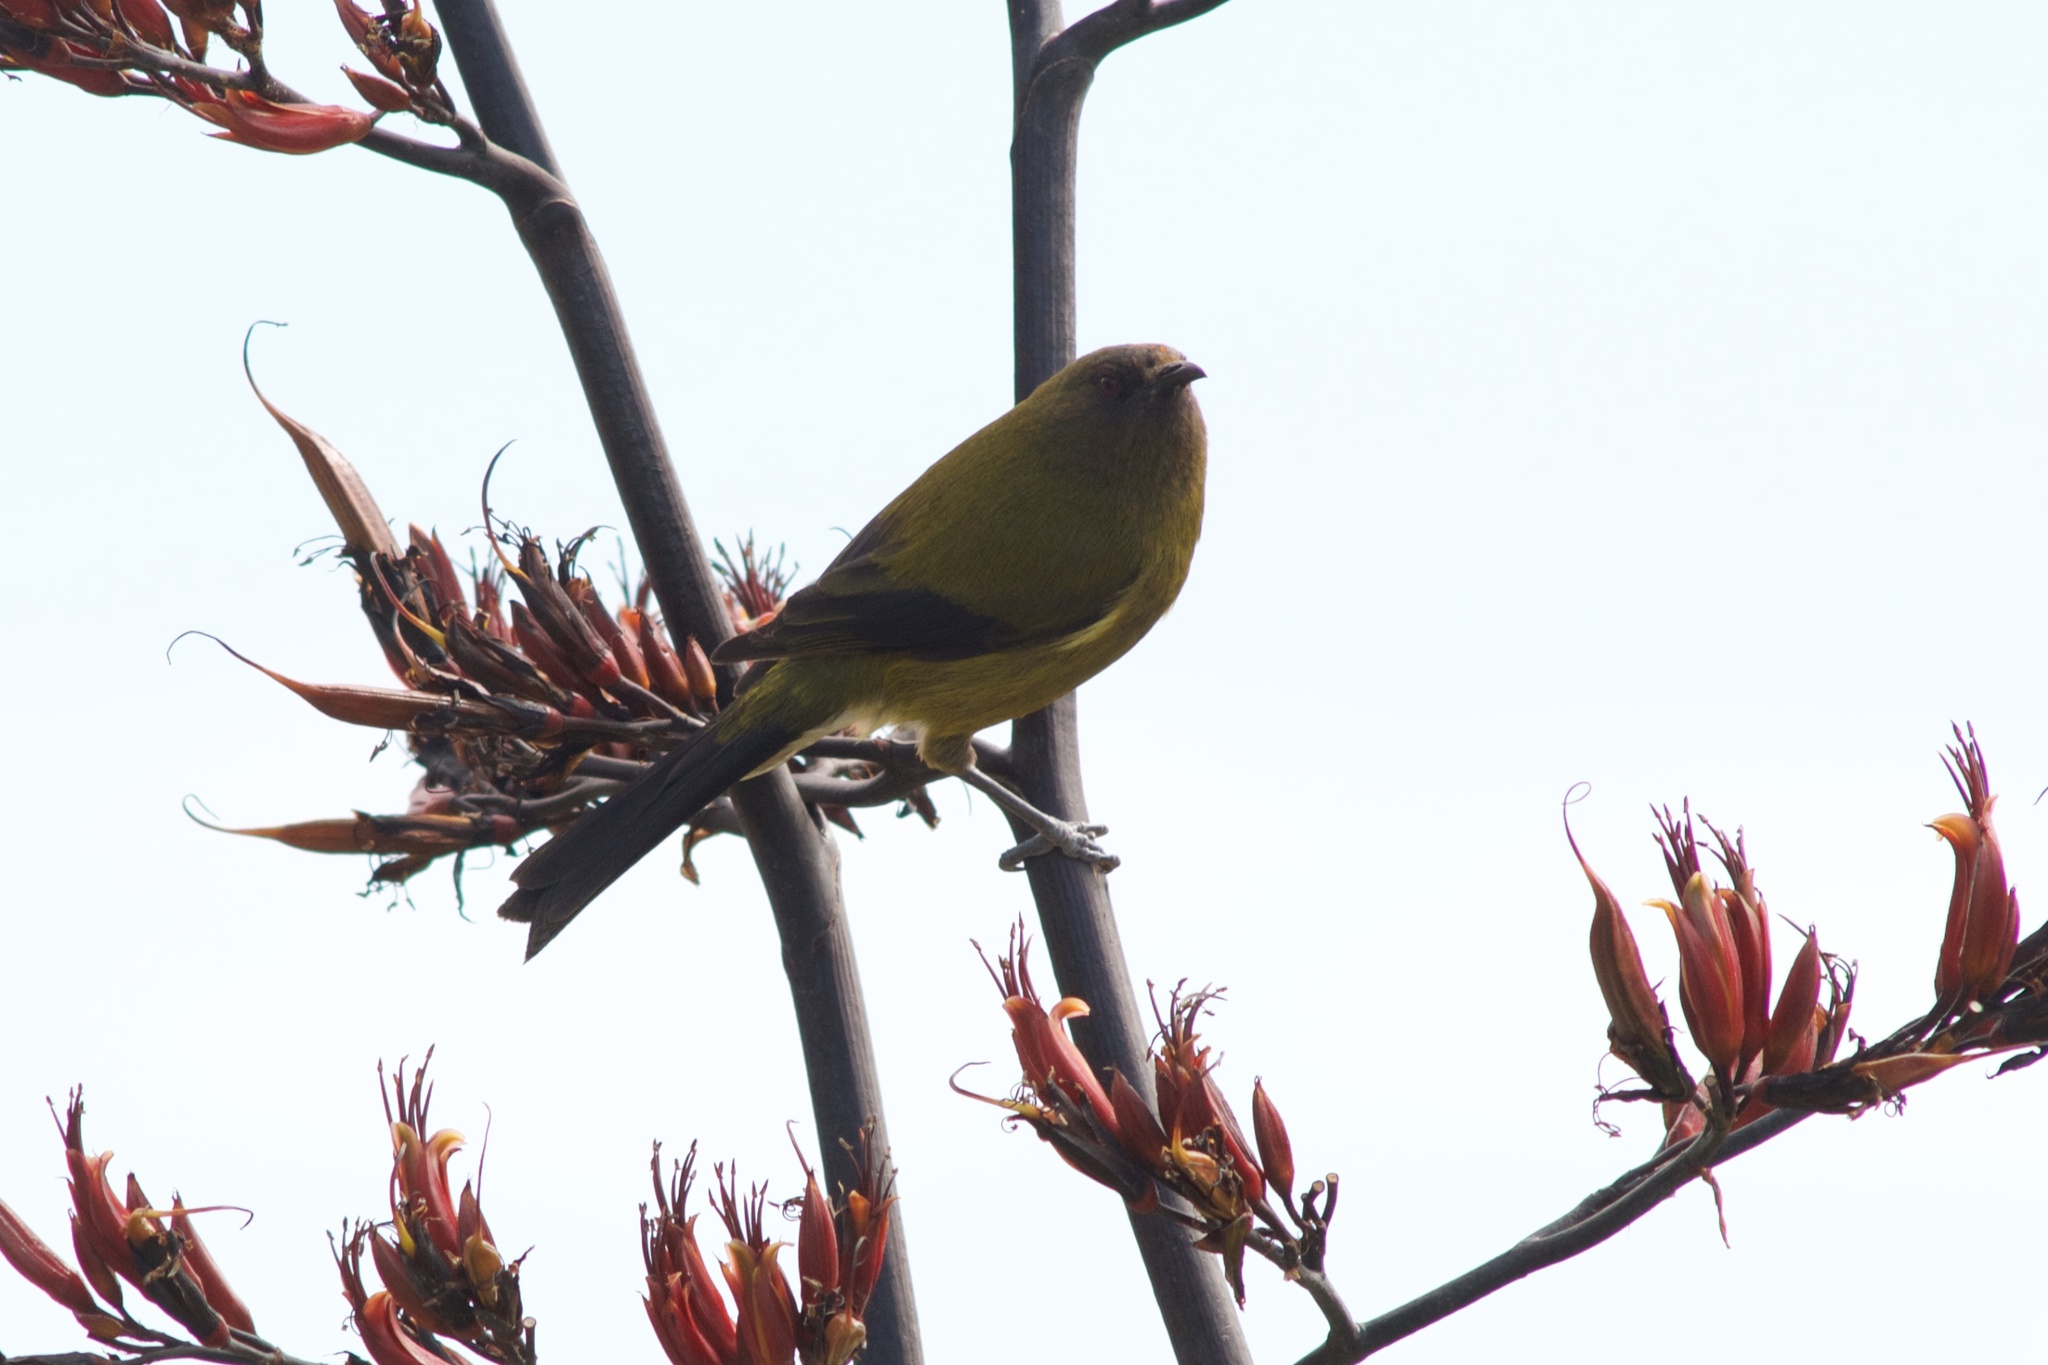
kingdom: Animalia
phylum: Chordata
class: Aves
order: Passeriformes
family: Meliphagidae
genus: Anthornis
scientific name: Anthornis melanura
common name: New zealand bellbird
